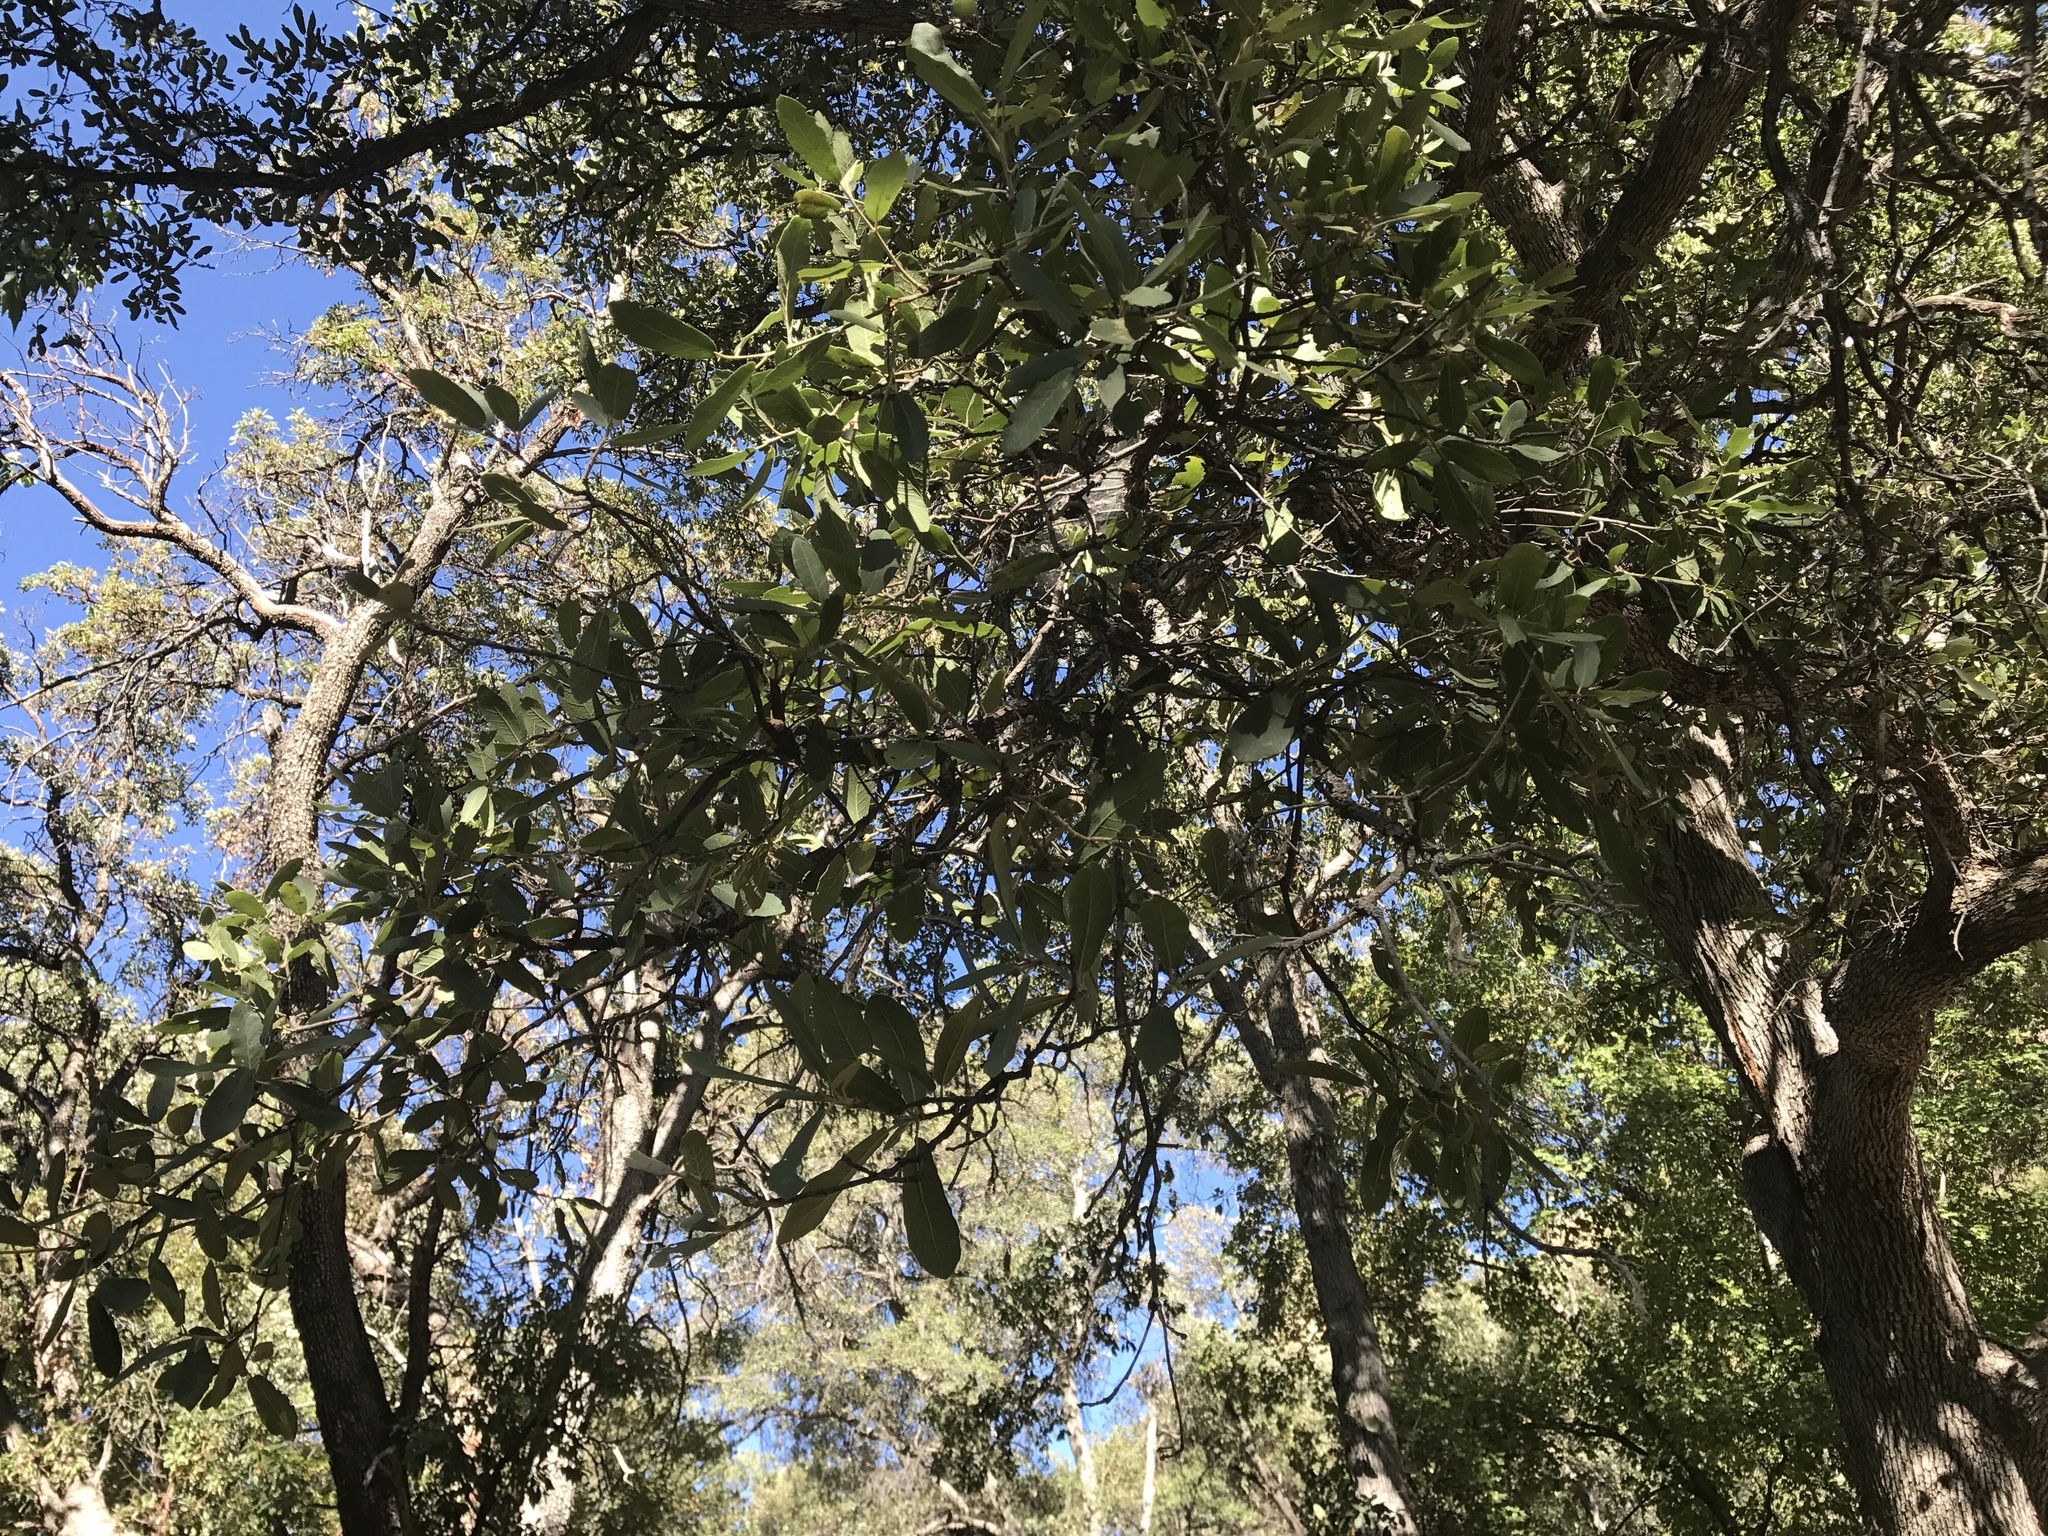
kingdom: Plantae
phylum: Tracheophyta
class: Magnoliopsida
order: Fagales
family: Fagaceae
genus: Quercus
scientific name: Quercus arizonica
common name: Arizona white oak
